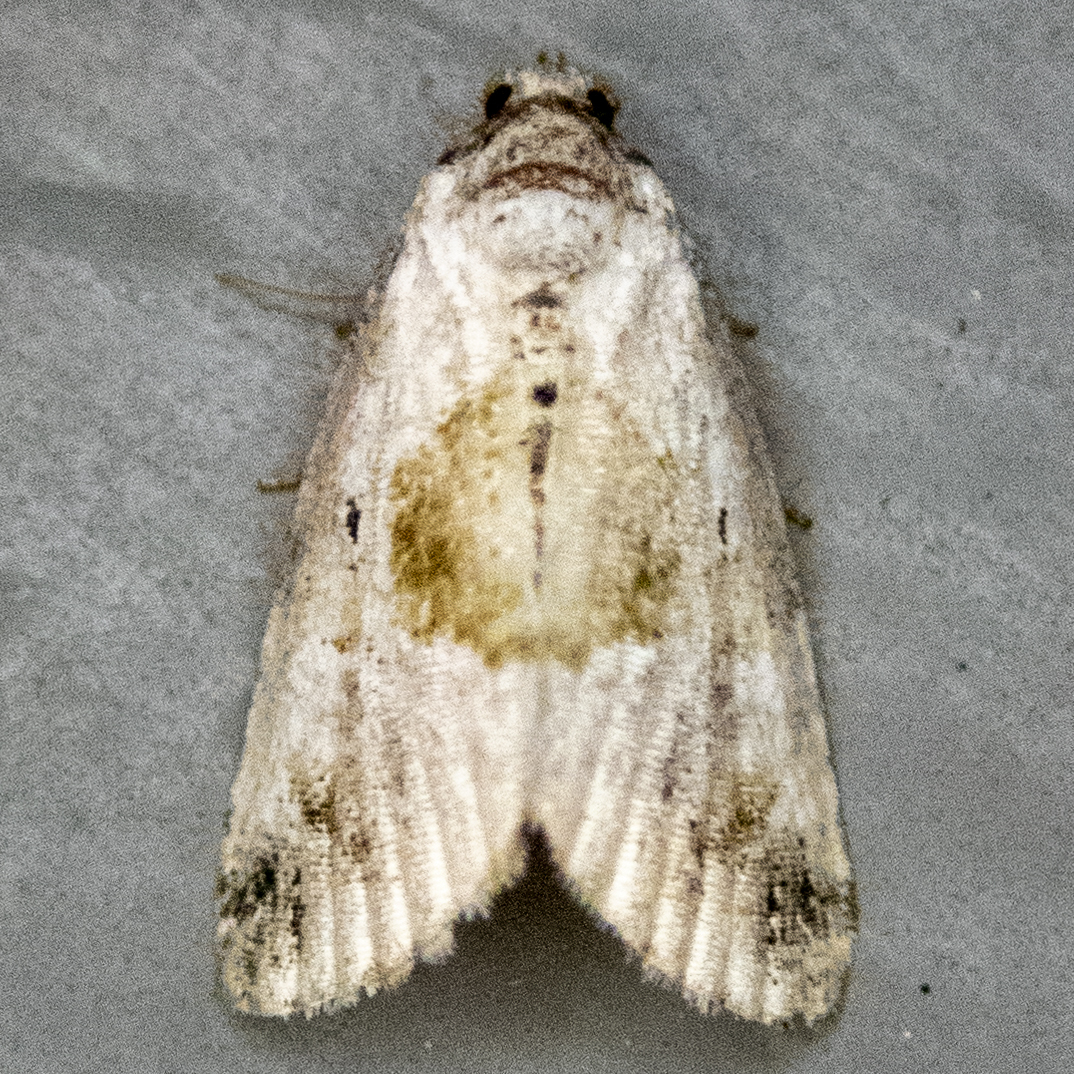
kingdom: Animalia
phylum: Arthropoda
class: Insecta
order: Lepidoptera
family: Noctuidae
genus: Maliattha
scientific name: Maliattha synochitis
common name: Black-dotted glyph
